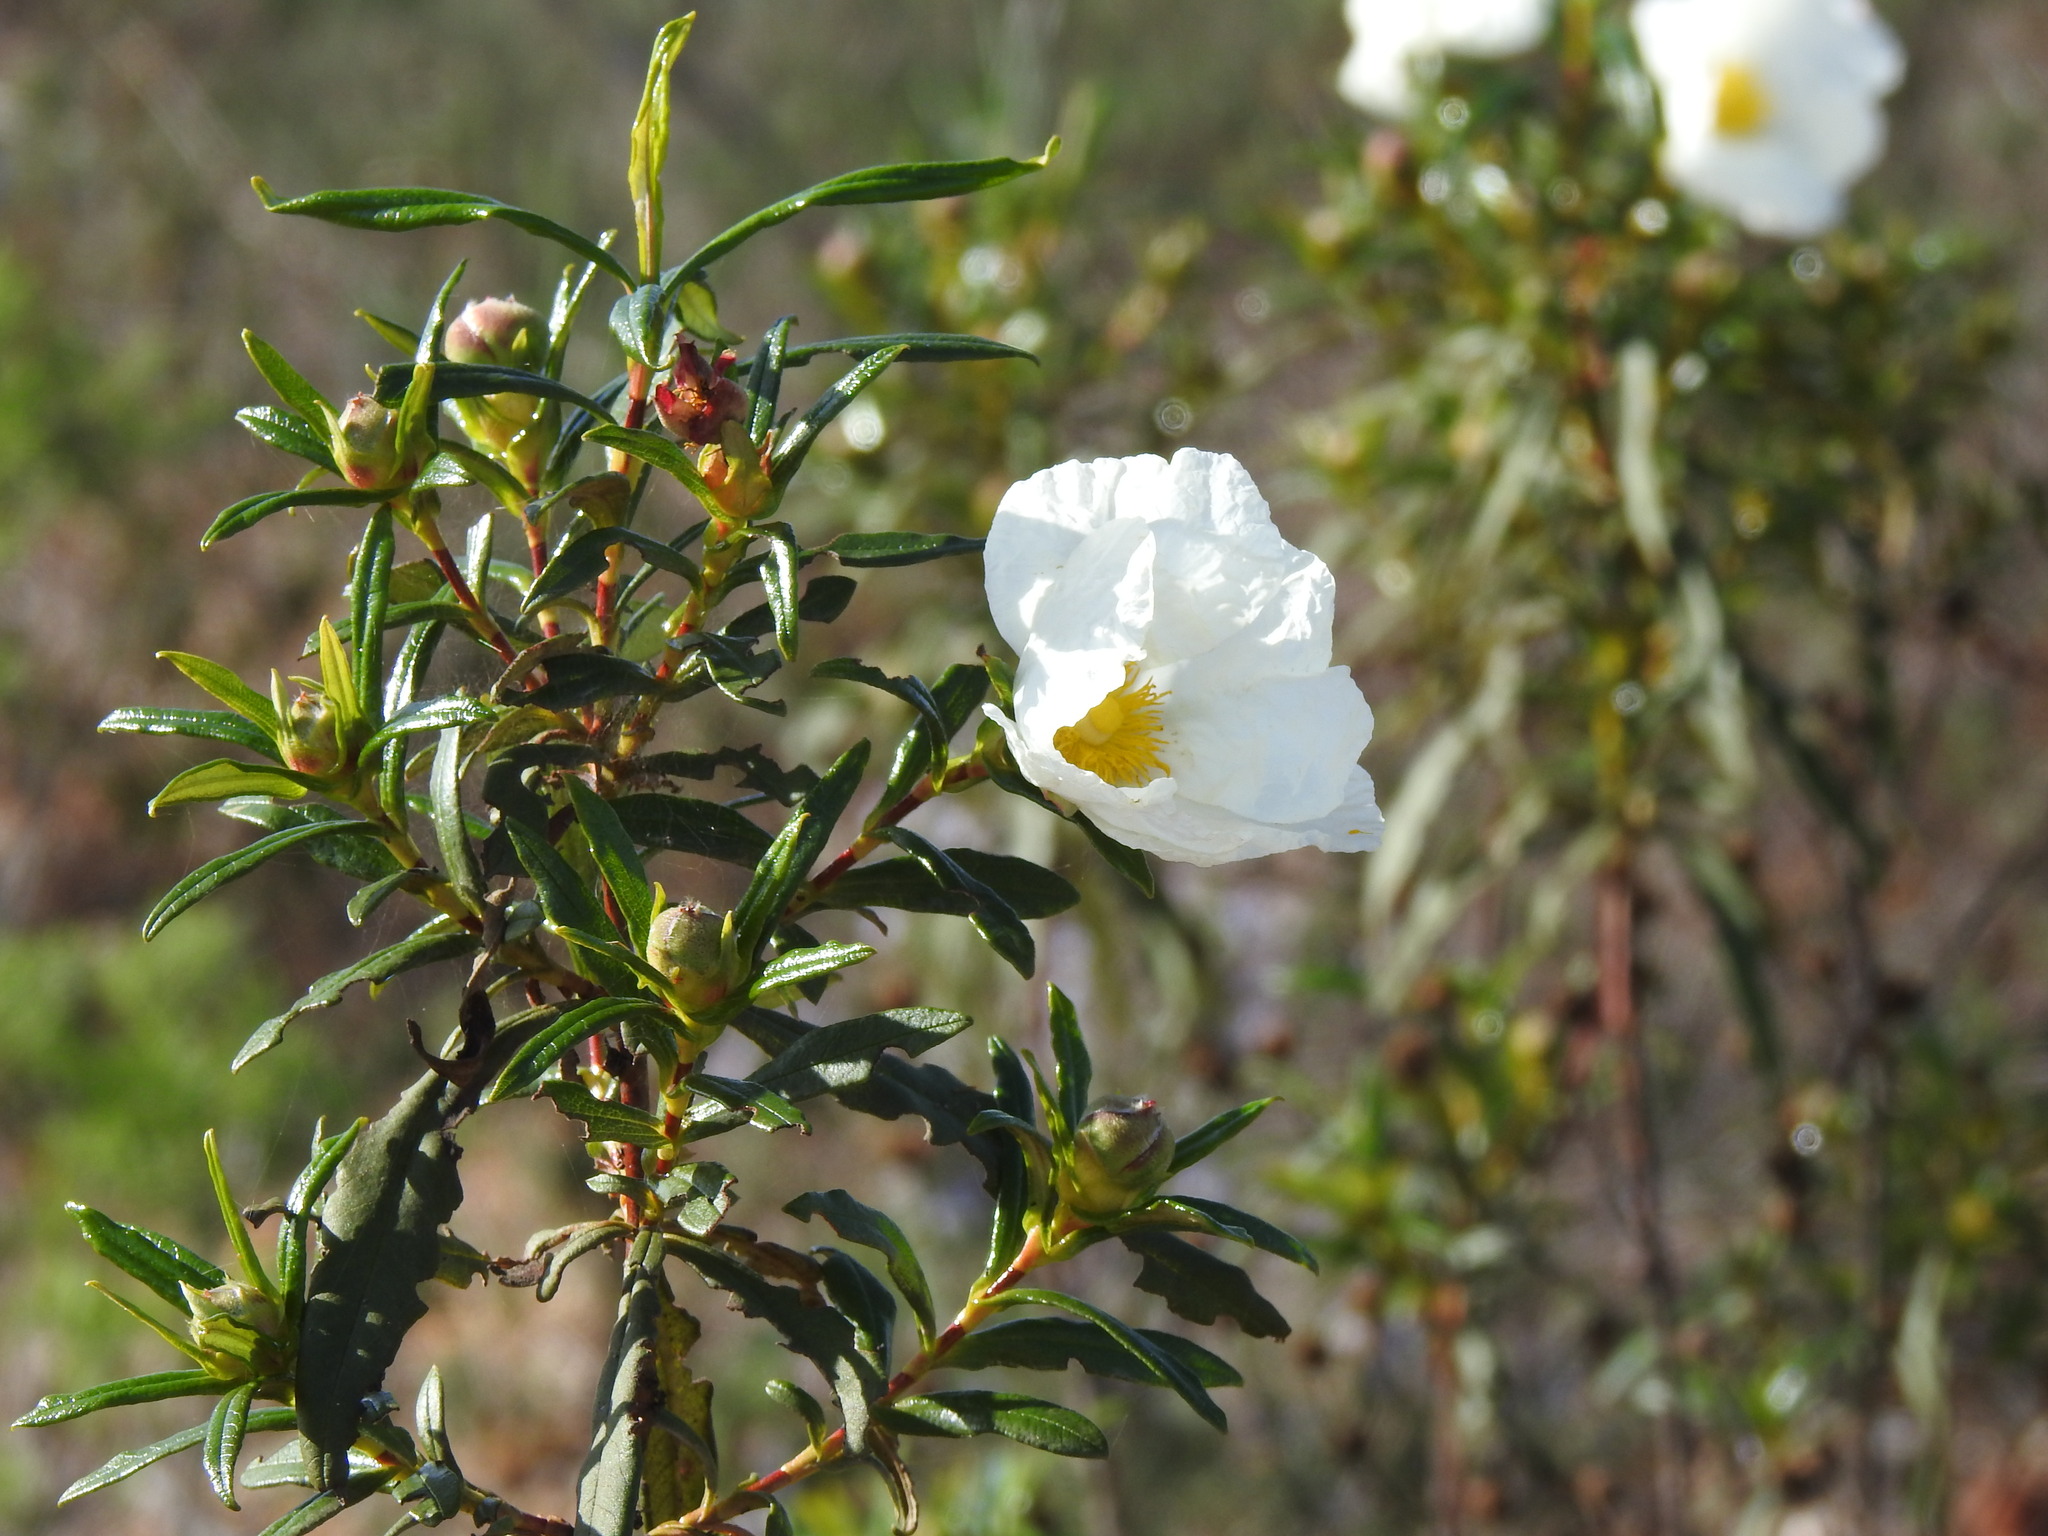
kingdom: Plantae
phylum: Tracheophyta
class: Magnoliopsida
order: Malvales
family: Cistaceae
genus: Cistus
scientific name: Cistus ladanifer
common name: Common gum cistus
